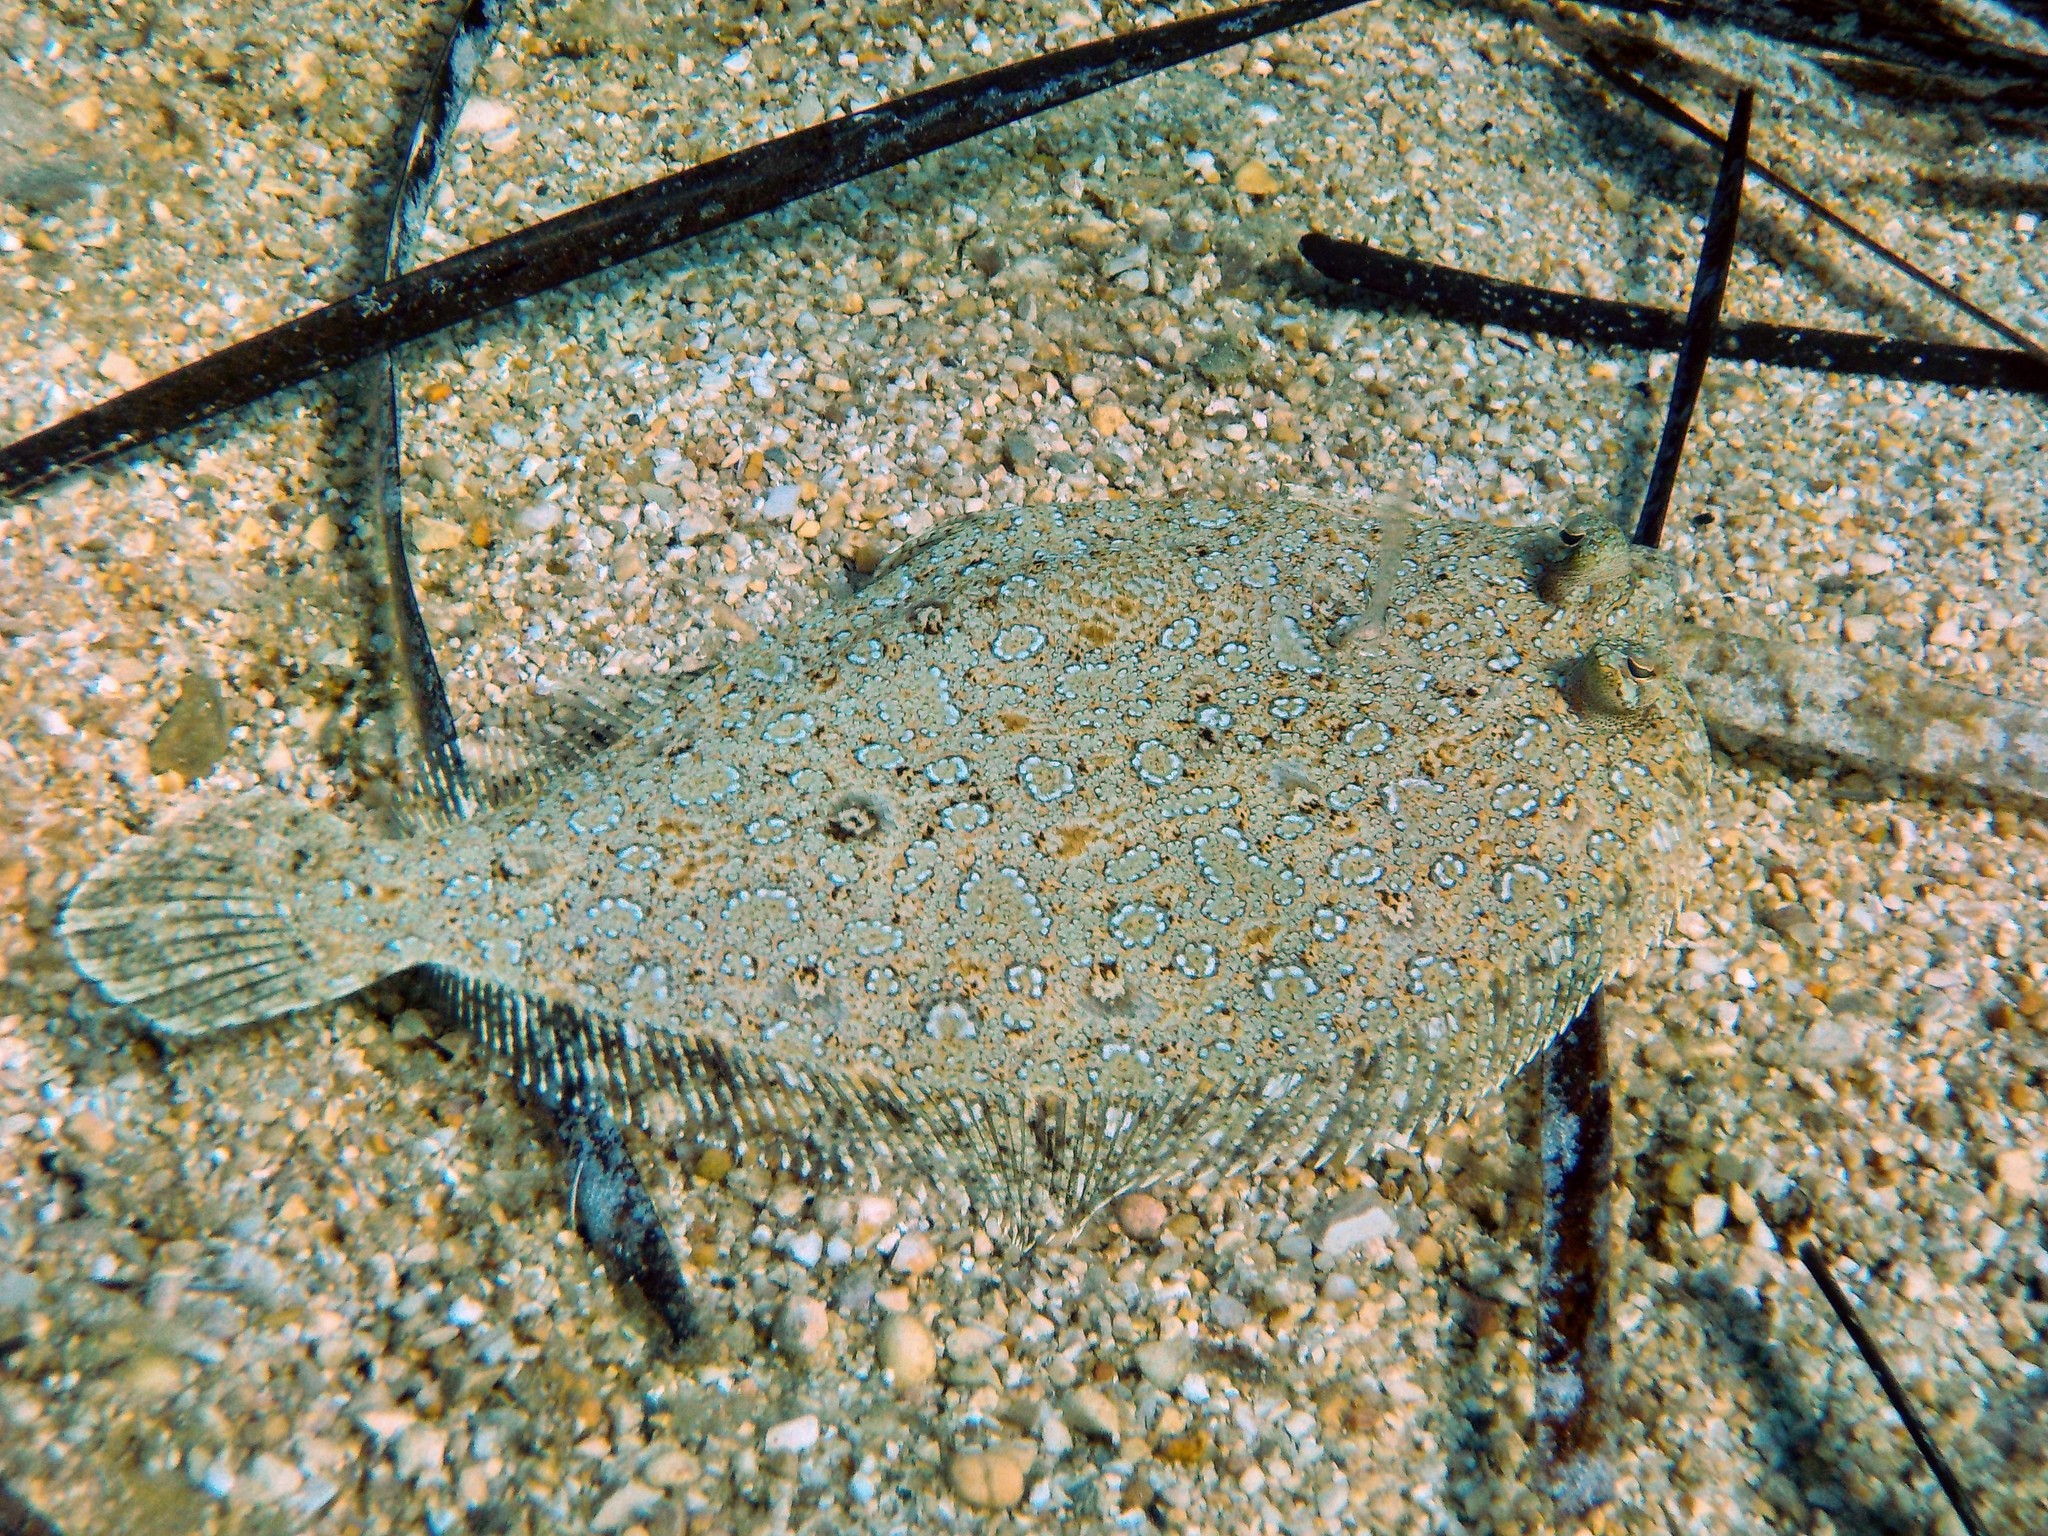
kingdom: Animalia
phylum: Chordata
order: Pleuronectiformes
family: Bothidae
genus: Bothus
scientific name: Bothus podas
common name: Wide-eyed flounder
